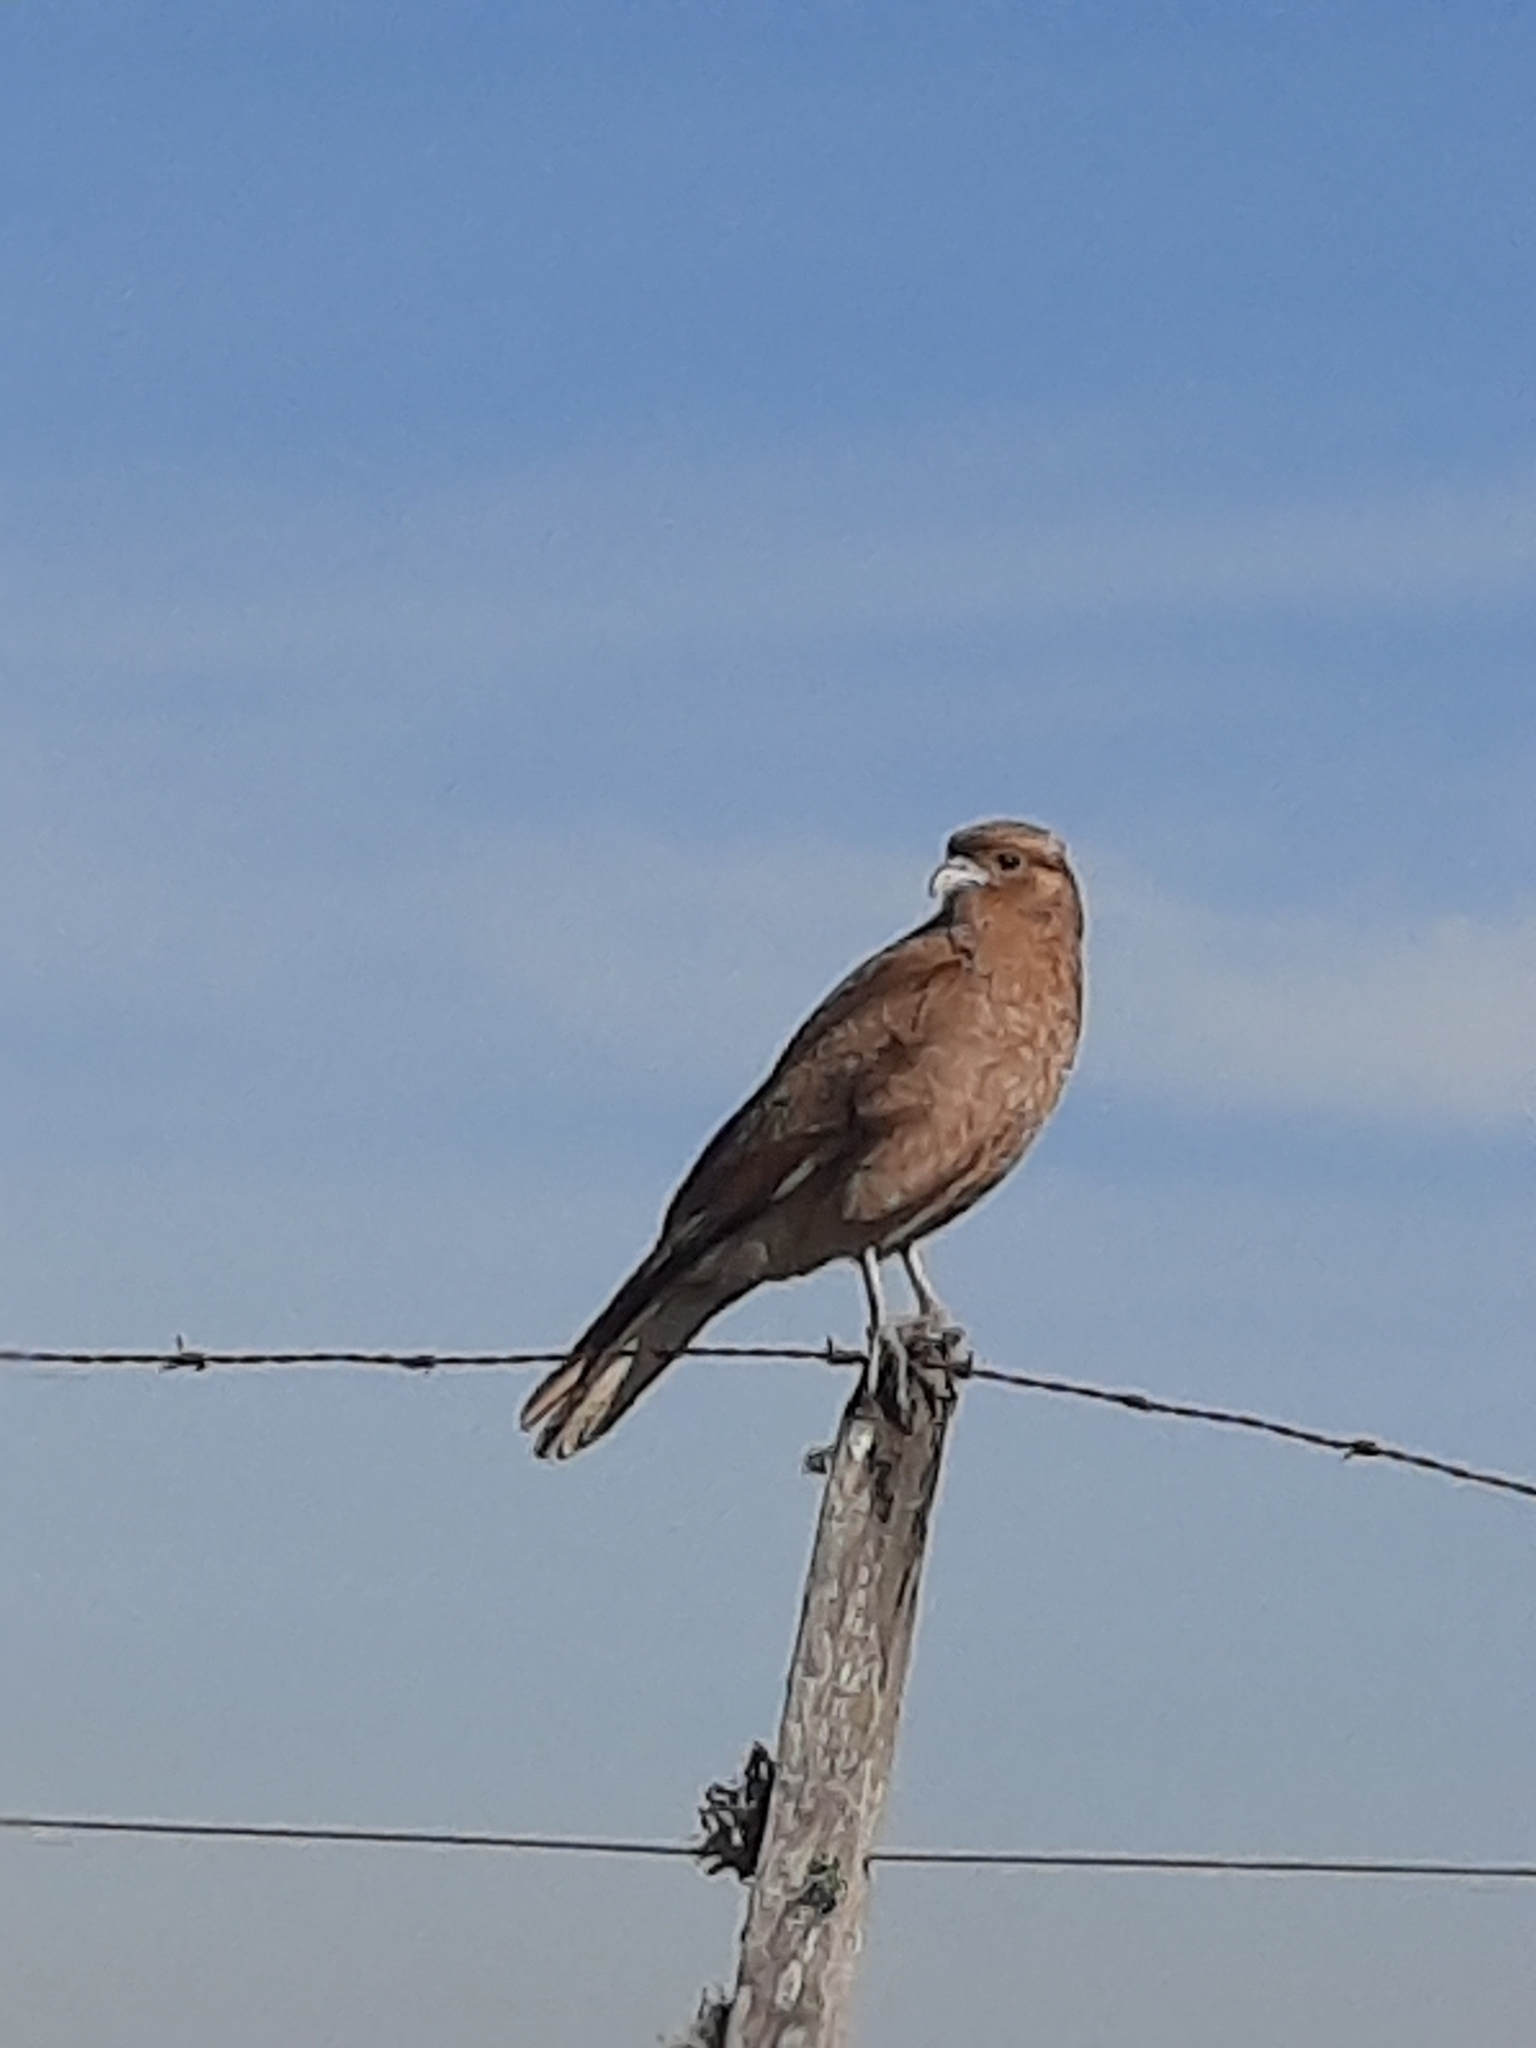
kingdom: Animalia
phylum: Chordata
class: Aves
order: Falconiformes
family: Falconidae
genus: Daptrius
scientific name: Daptrius
